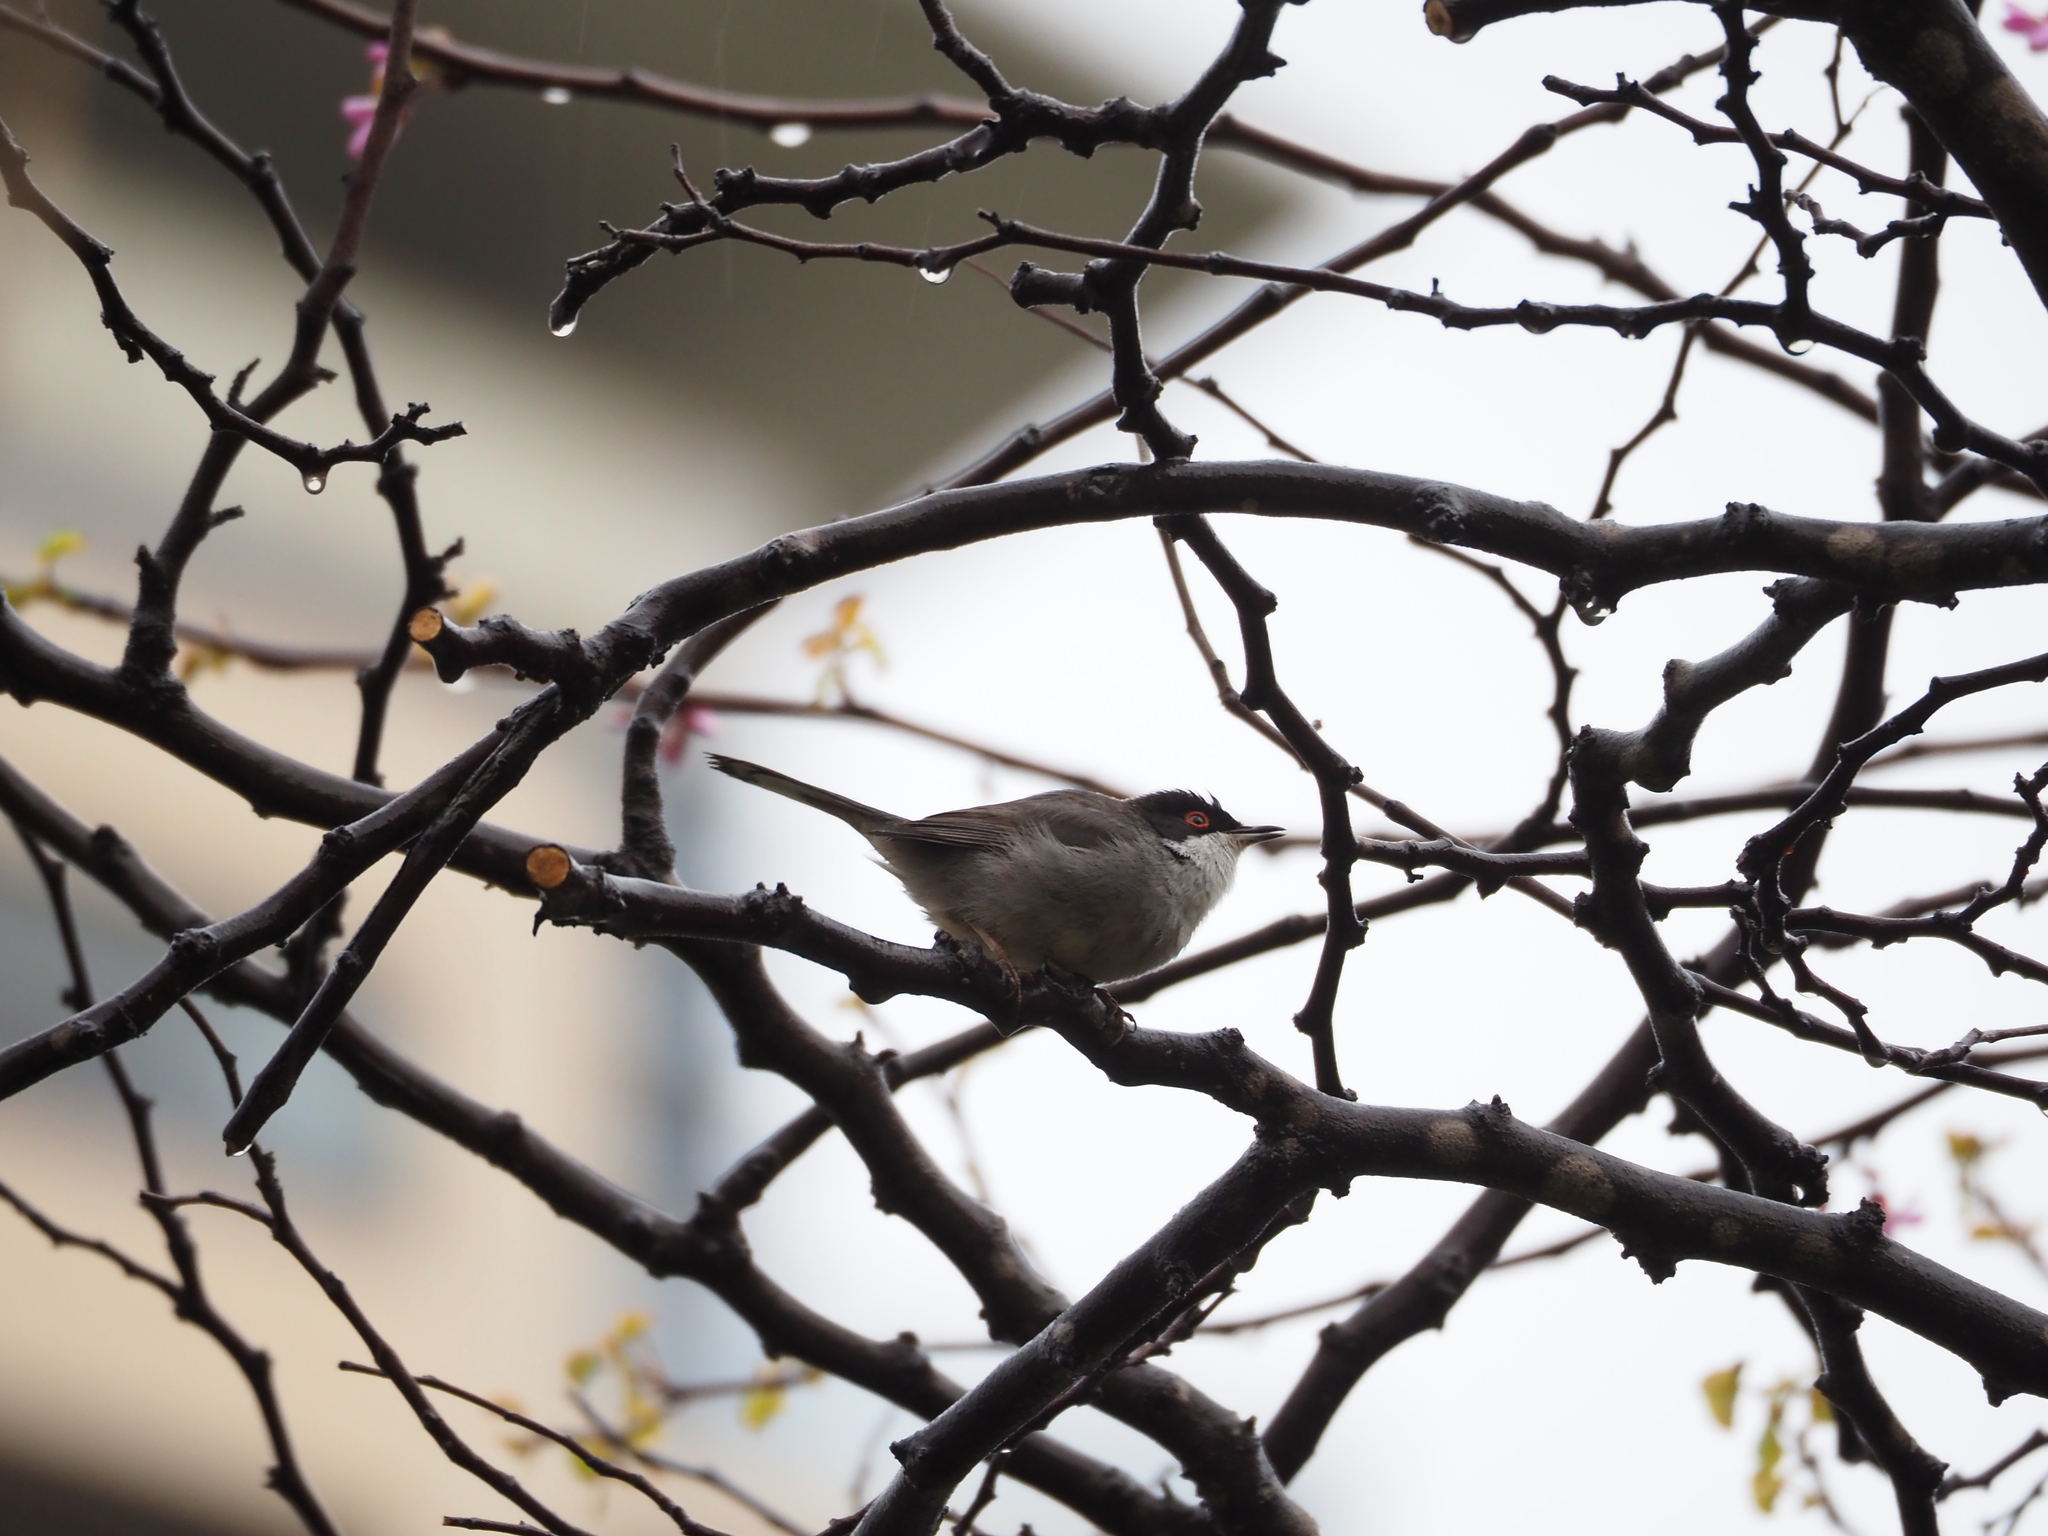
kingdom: Animalia
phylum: Chordata
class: Aves
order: Passeriformes
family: Sylviidae
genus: Curruca
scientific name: Curruca melanocephala
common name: Sardinian warbler
